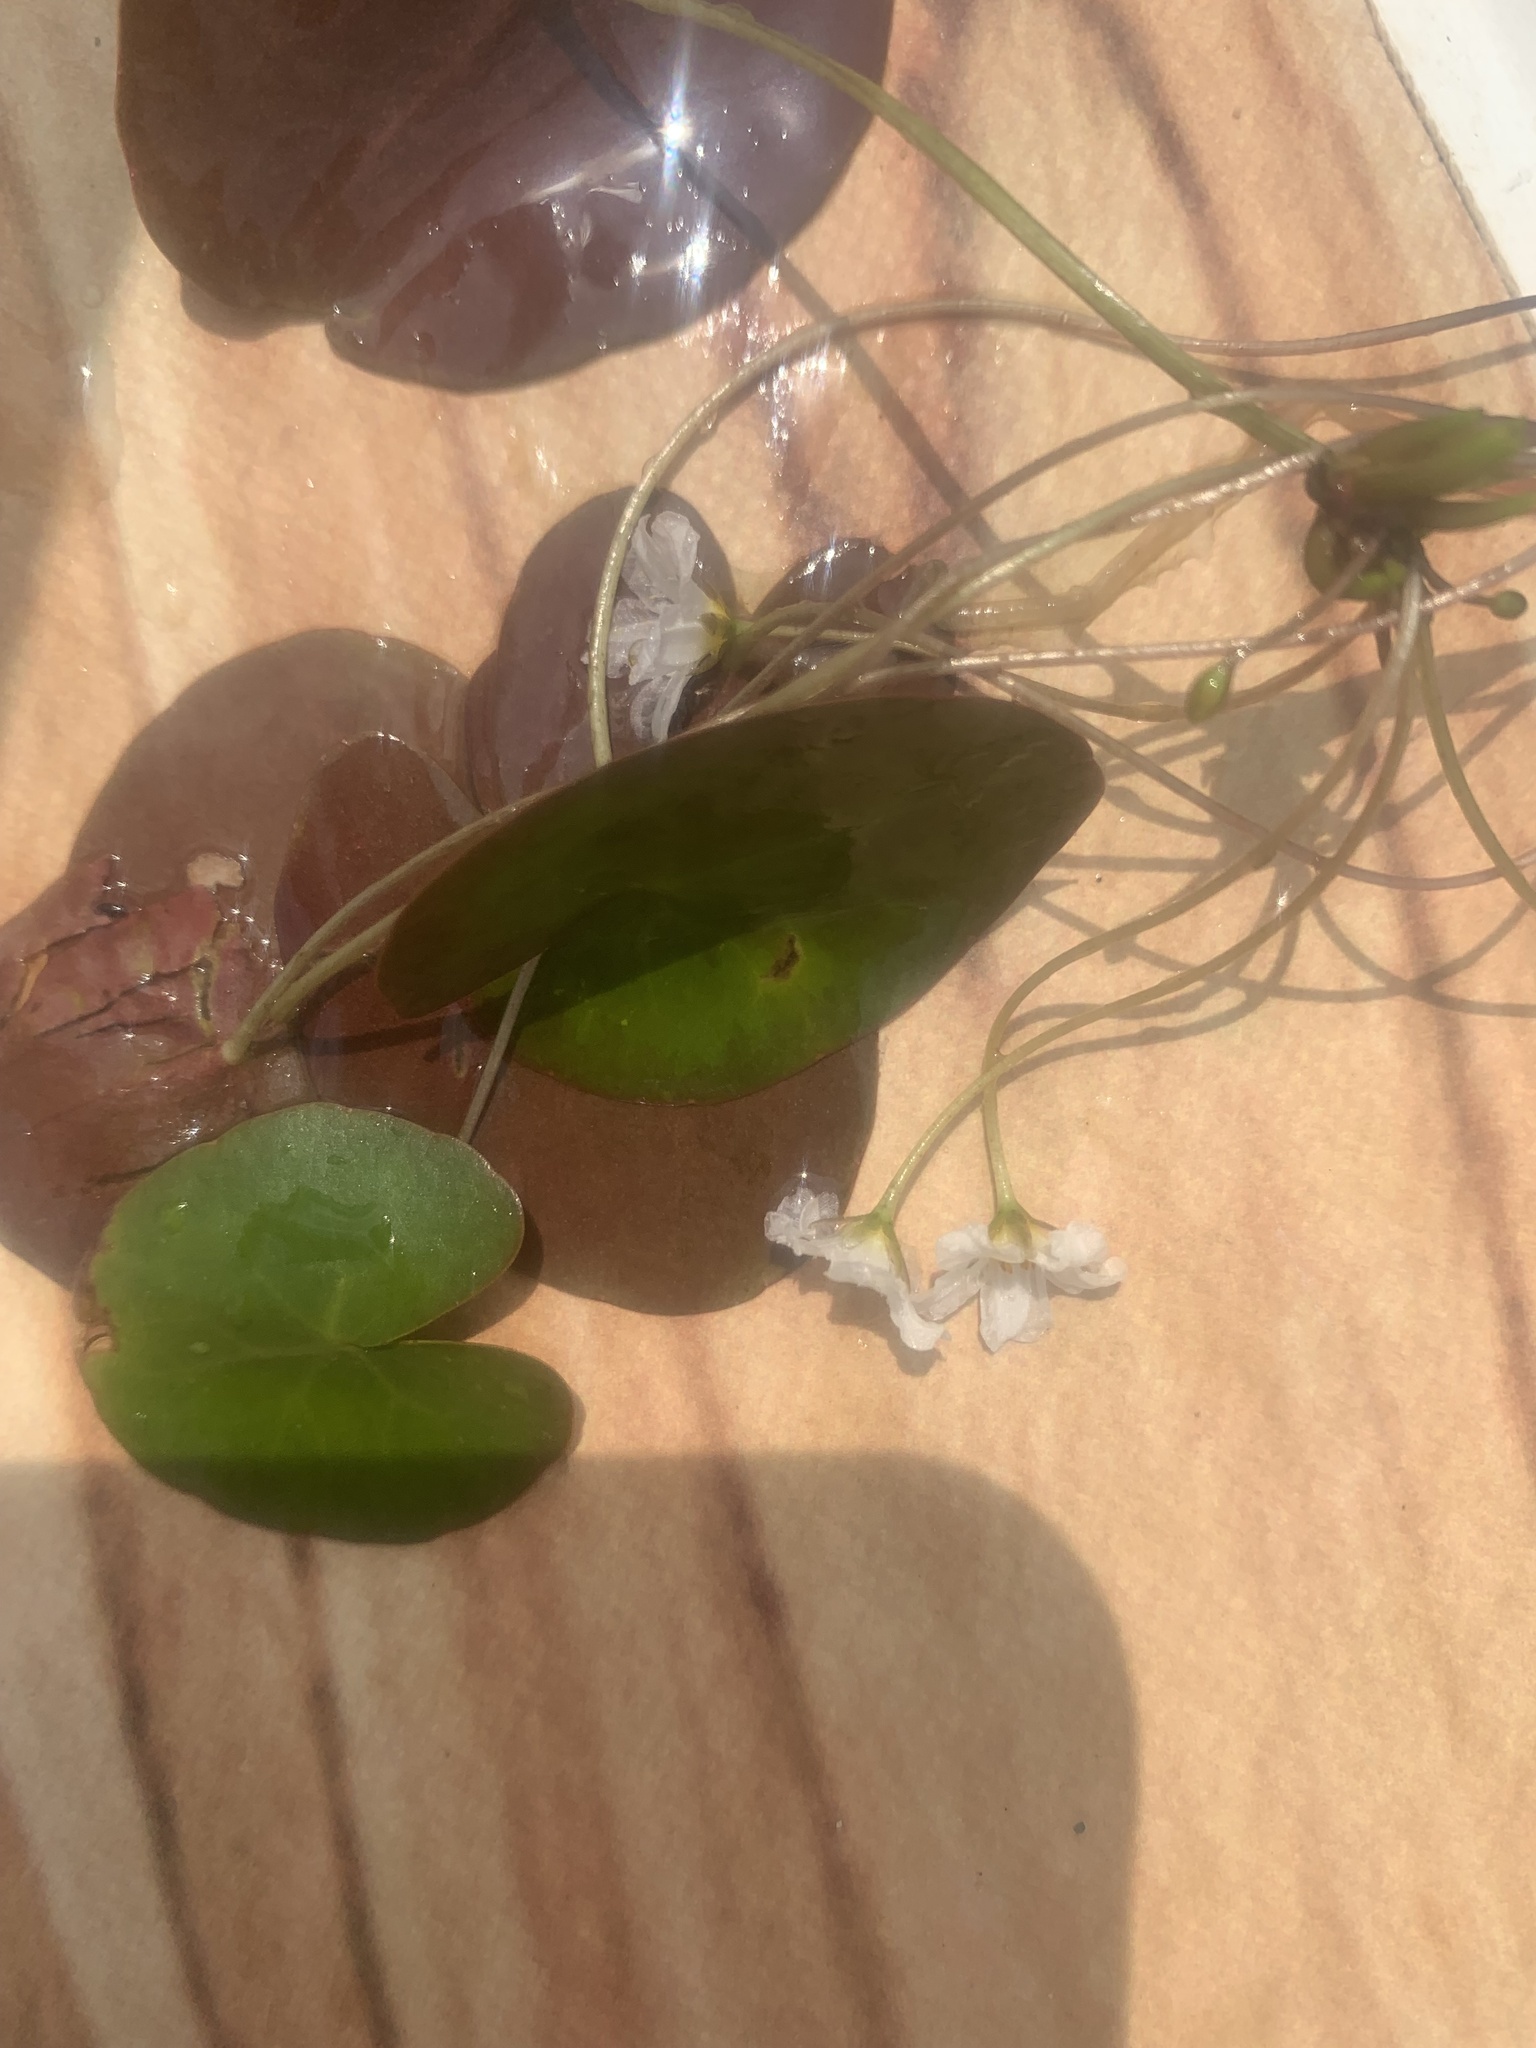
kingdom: Plantae
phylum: Tracheophyta
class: Magnoliopsida
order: Asterales
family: Menyanthaceae
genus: Nymphoides
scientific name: Nymphoides cordata
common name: Eight-angled floatingheart
